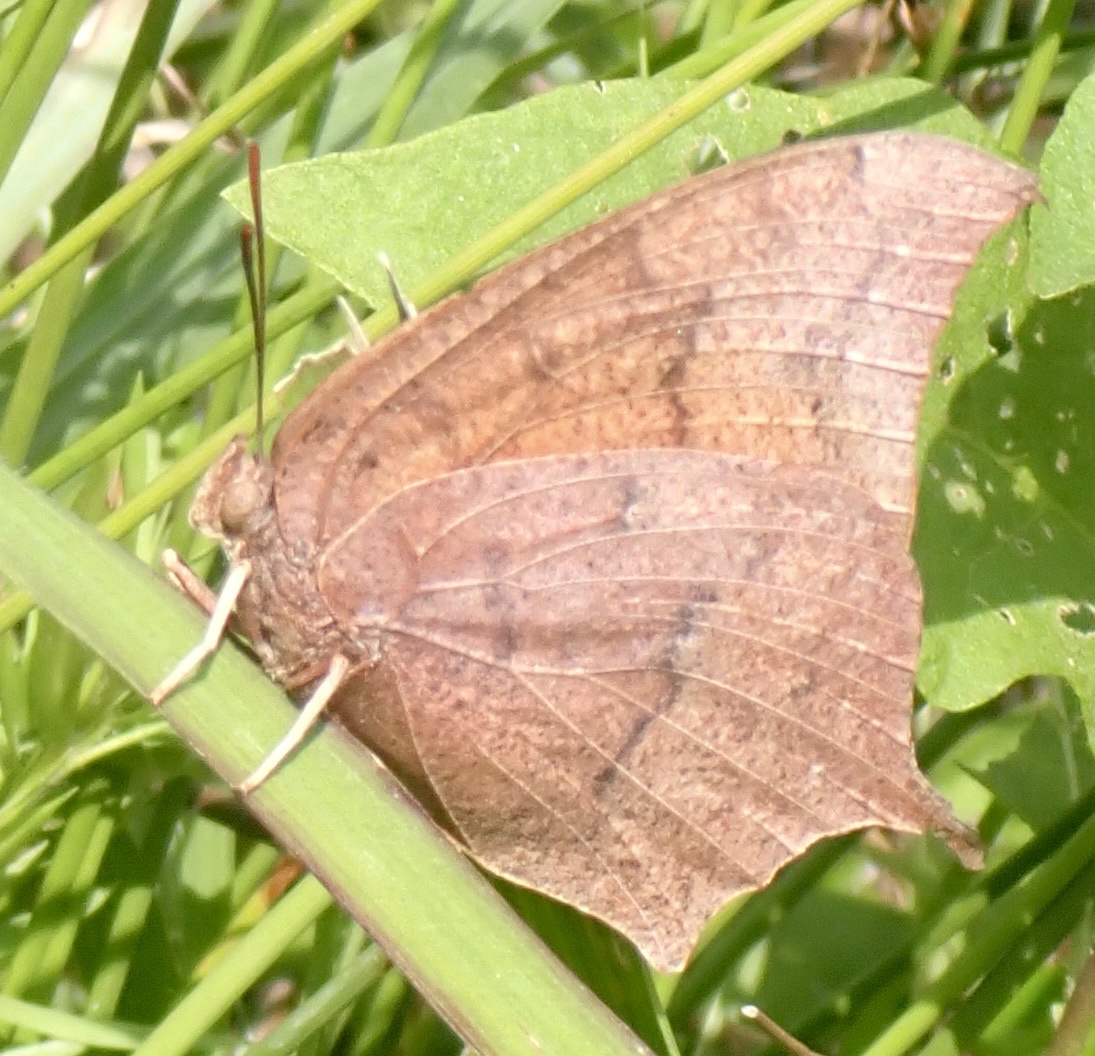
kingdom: Animalia
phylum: Arthropoda
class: Insecta
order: Lepidoptera
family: Nymphalidae
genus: Anaea
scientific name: Anaea andria
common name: Goatweed leafwing
